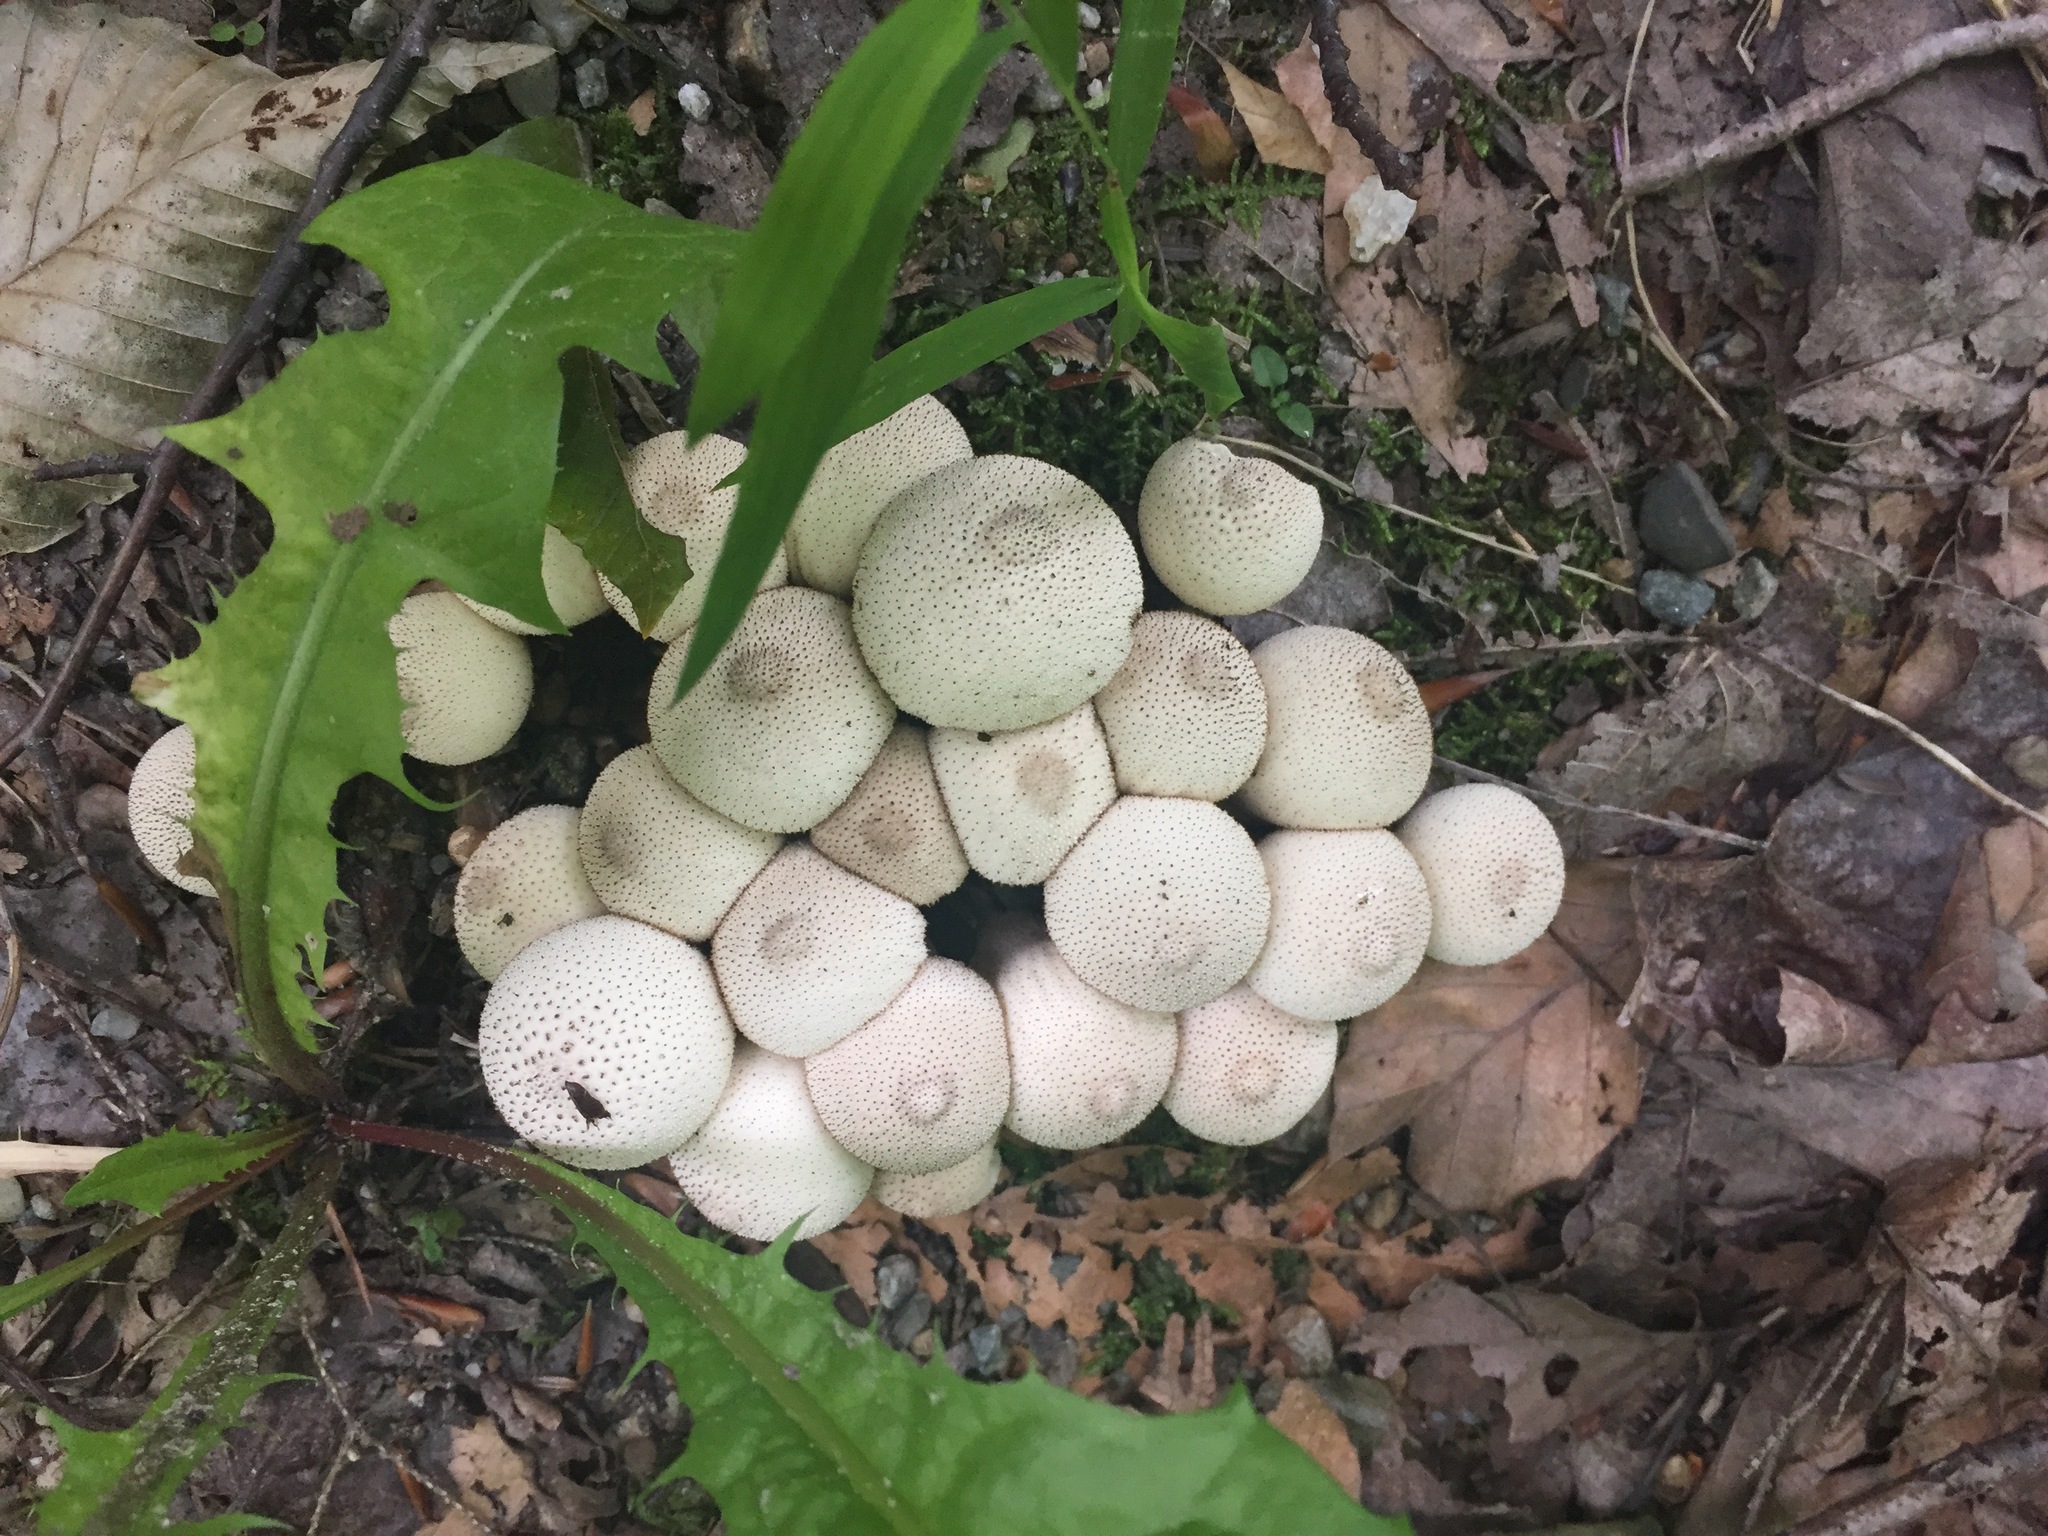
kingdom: Fungi
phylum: Basidiomycota
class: Agaricomycetes
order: Agaricales
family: Lycoperdaceae
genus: Lycoperdon
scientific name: Lycoperdon perlatum
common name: Common puffball
